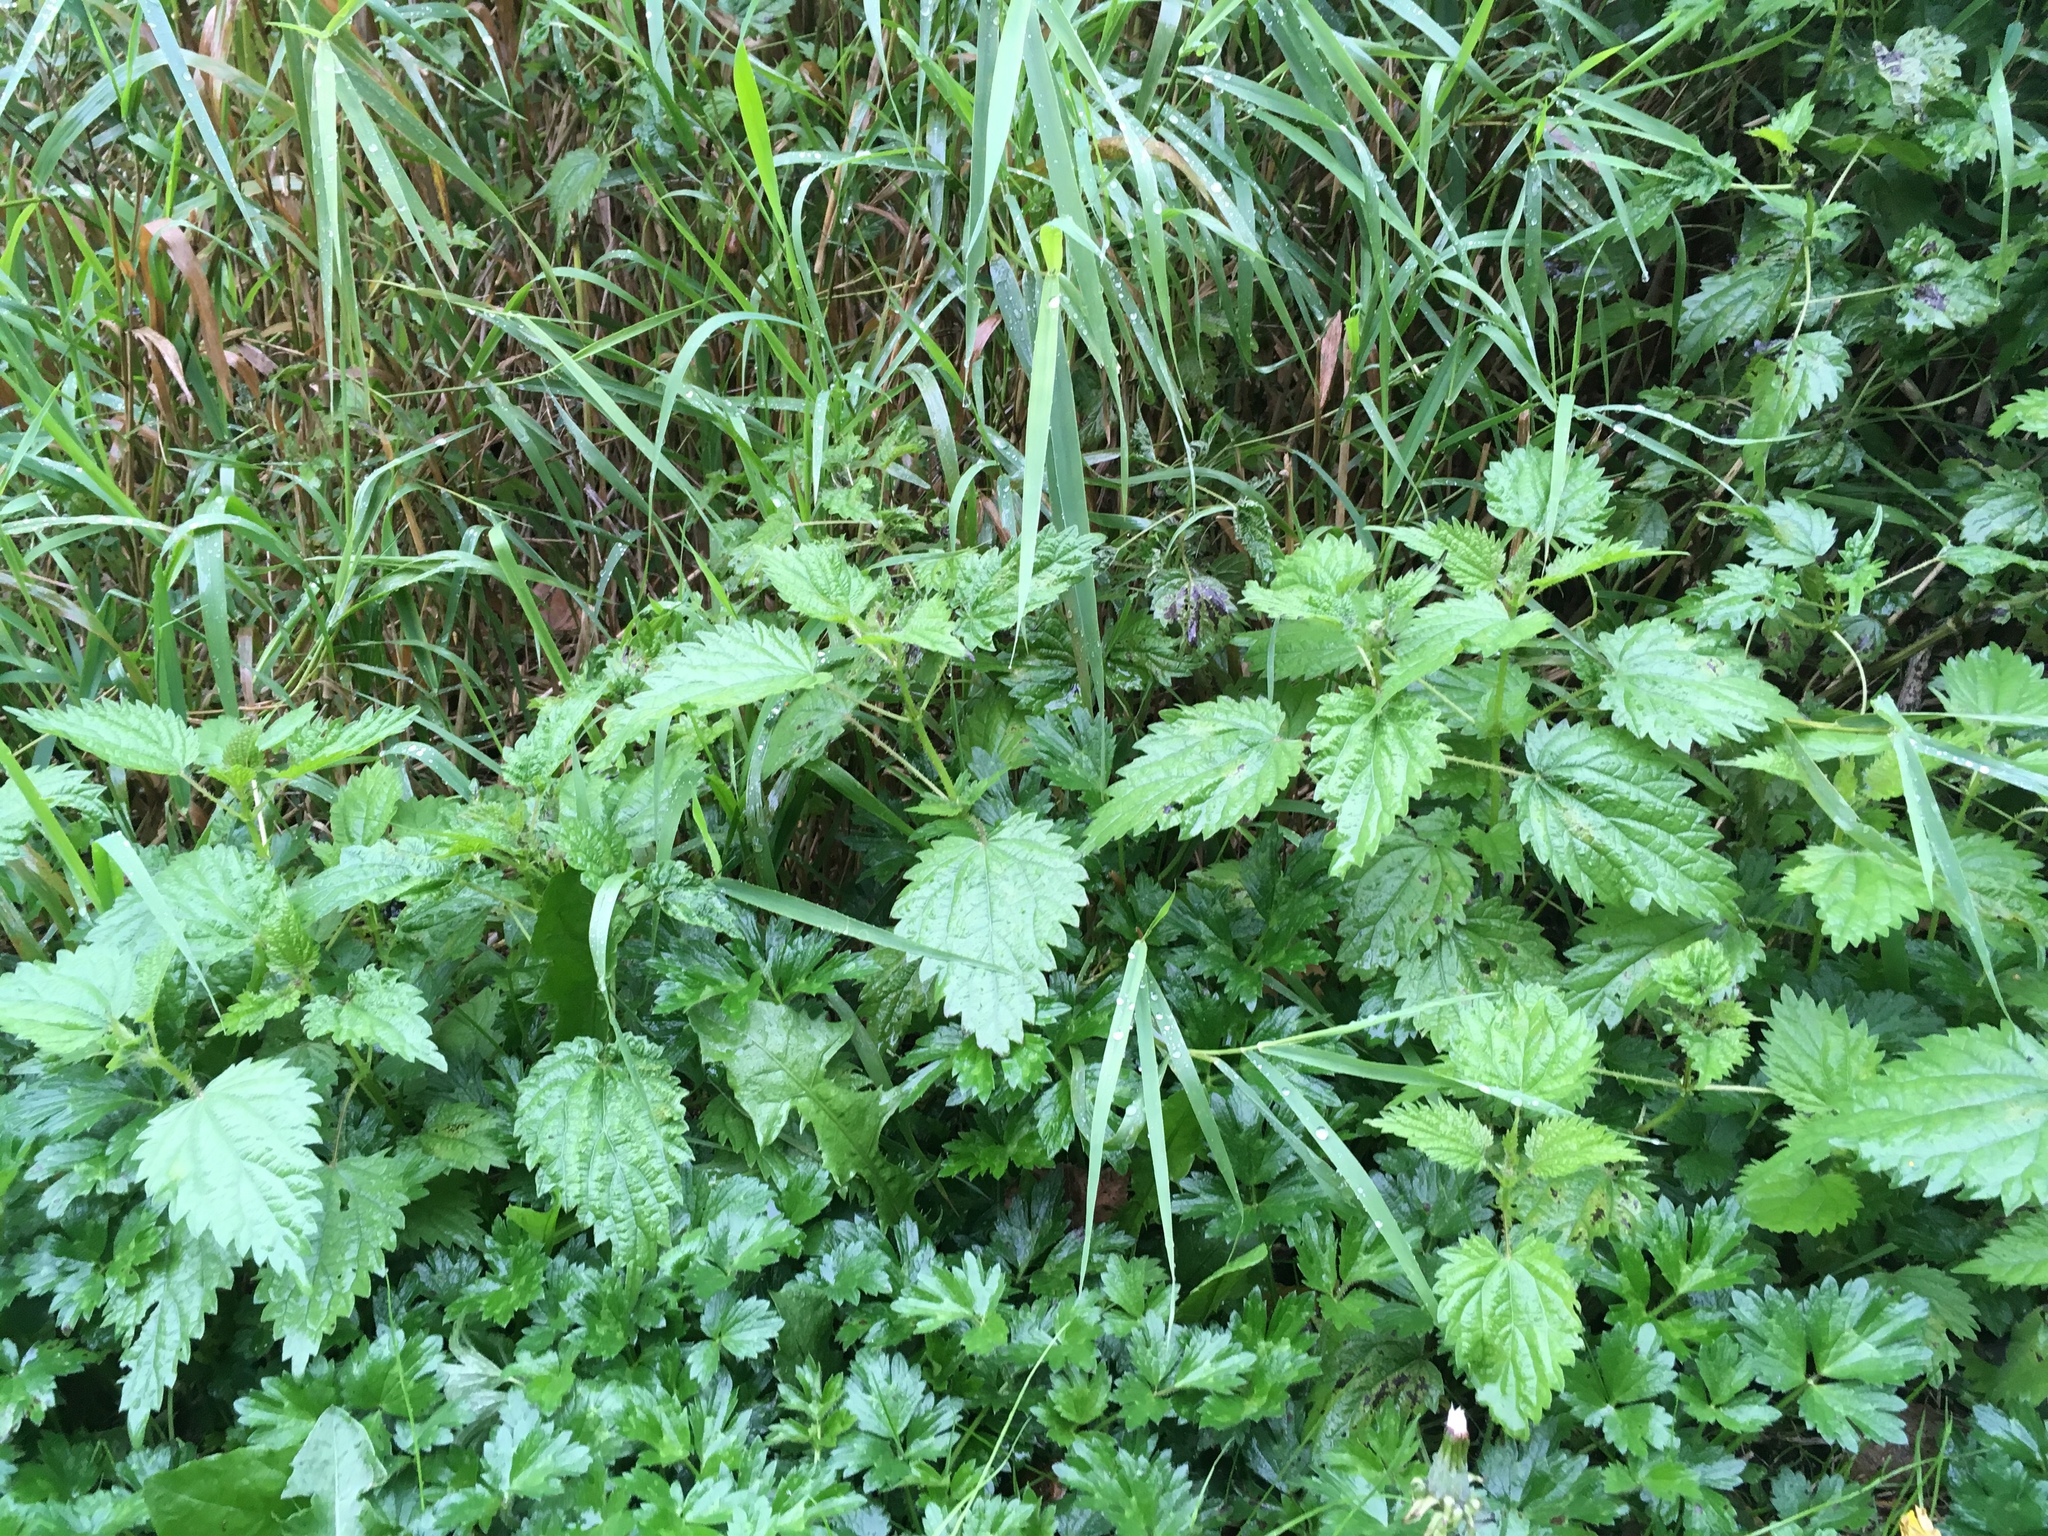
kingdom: Plantae
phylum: Tracheophyta
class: Magnoliopsida
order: Rosales
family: Urticaceae
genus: Urtica
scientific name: Urtica gracilis
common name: Slender stinging nettle
